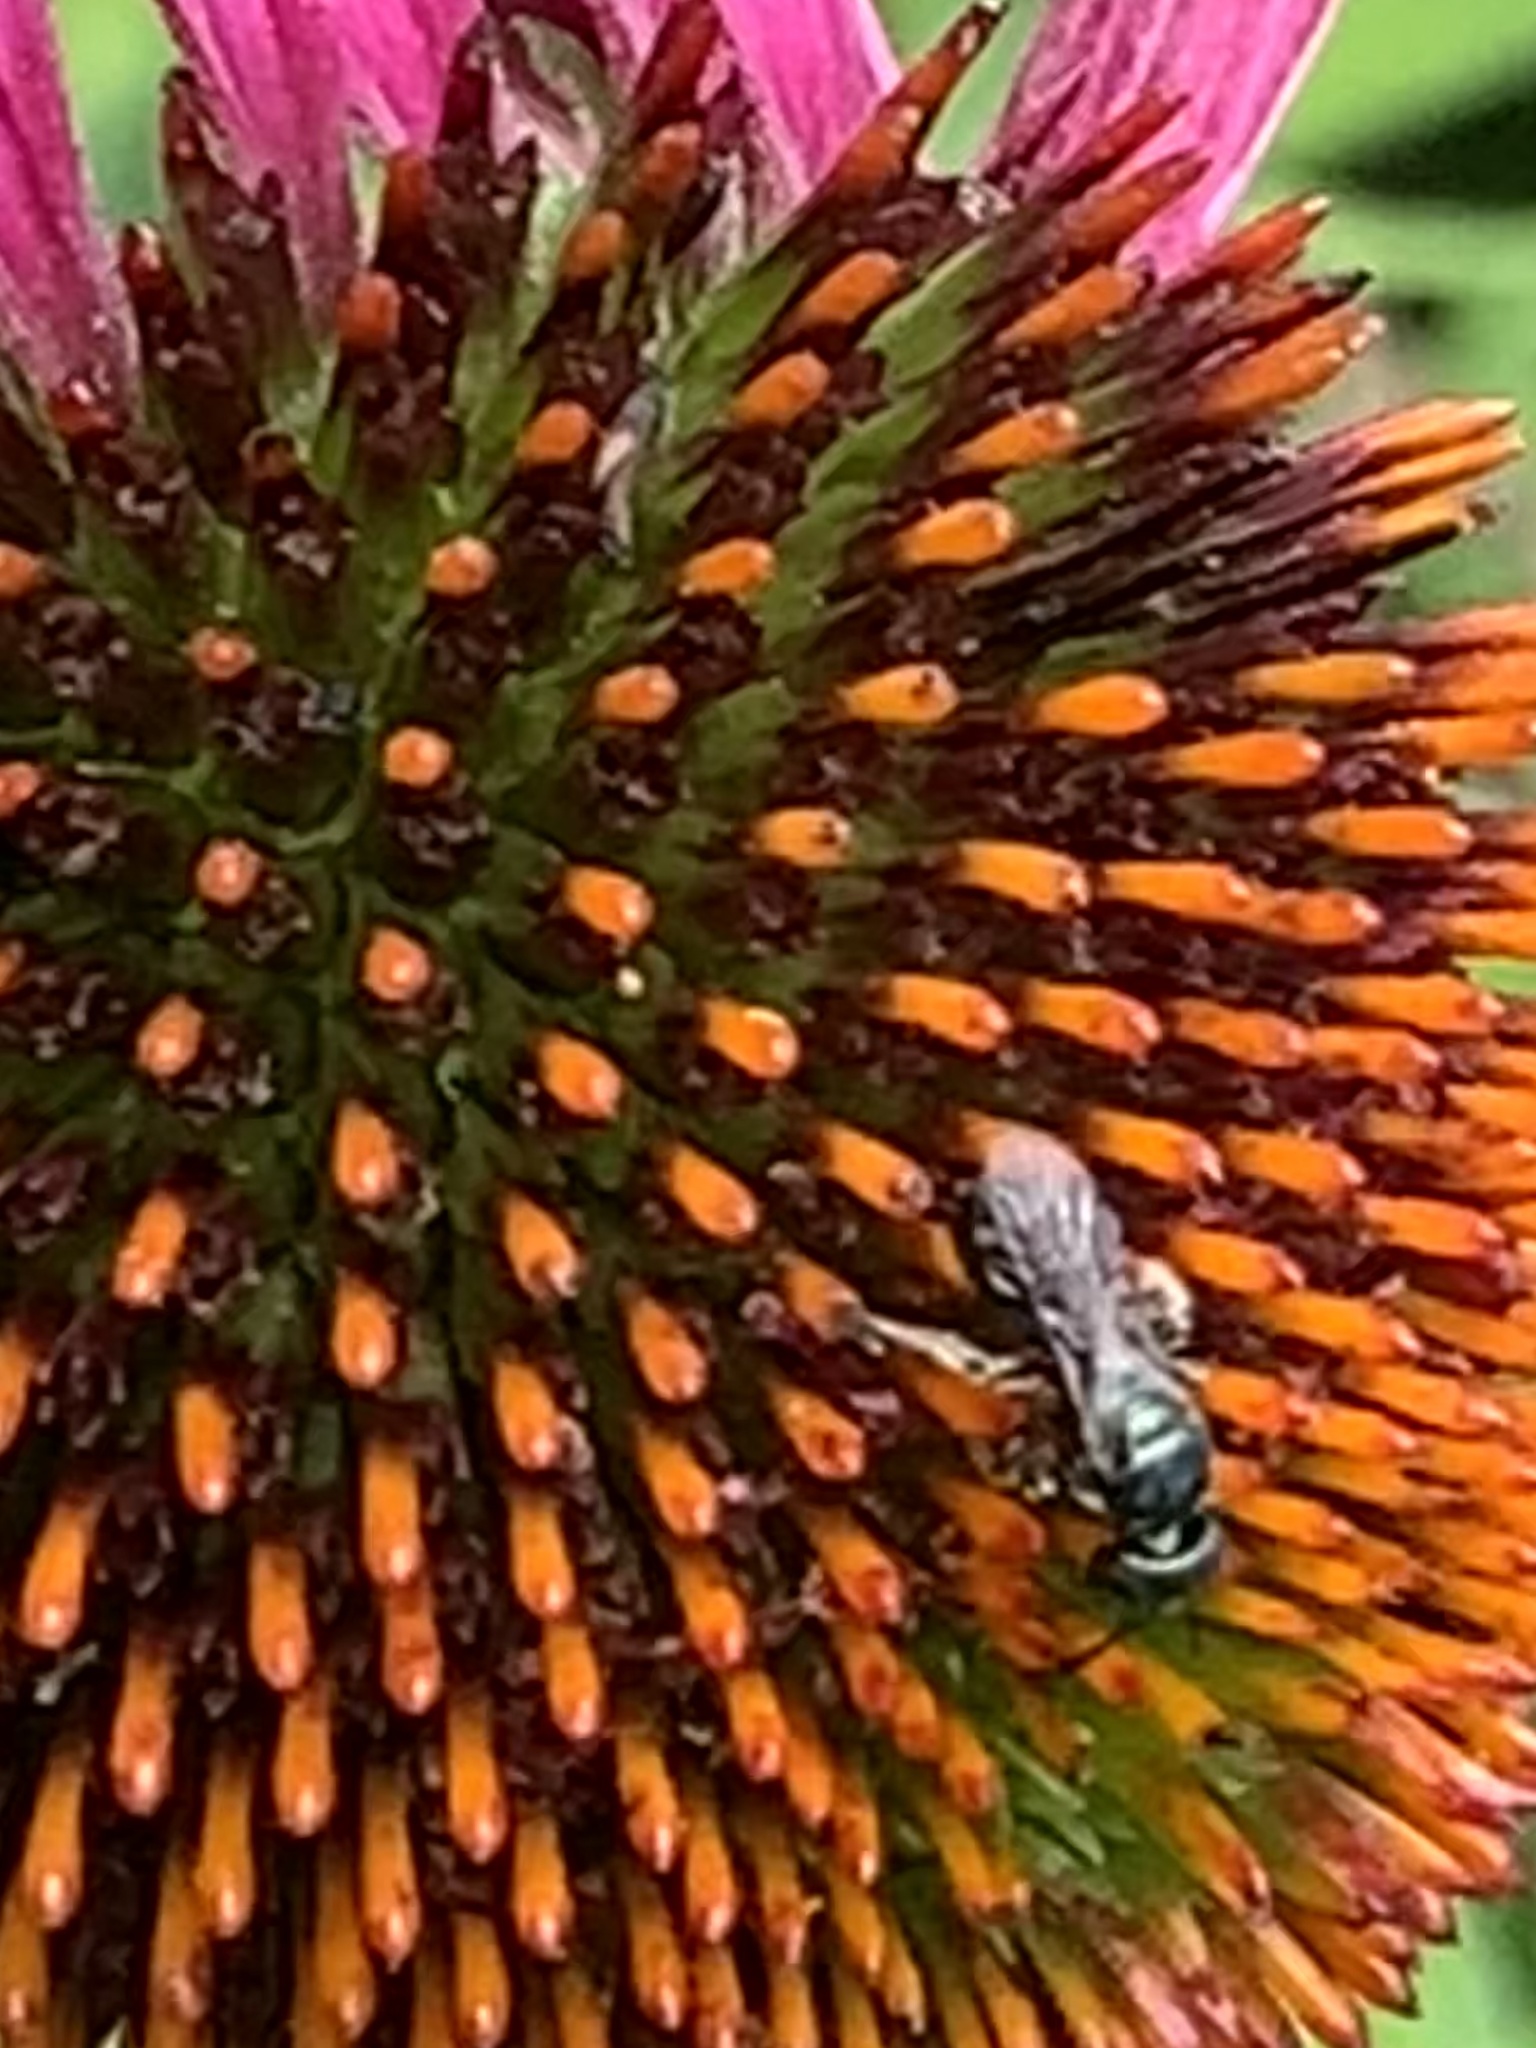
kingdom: Animalia
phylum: Arthropoda
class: Insecta
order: Hymenoptera
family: Apidae
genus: Zadontomerus
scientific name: Zadontomerus
